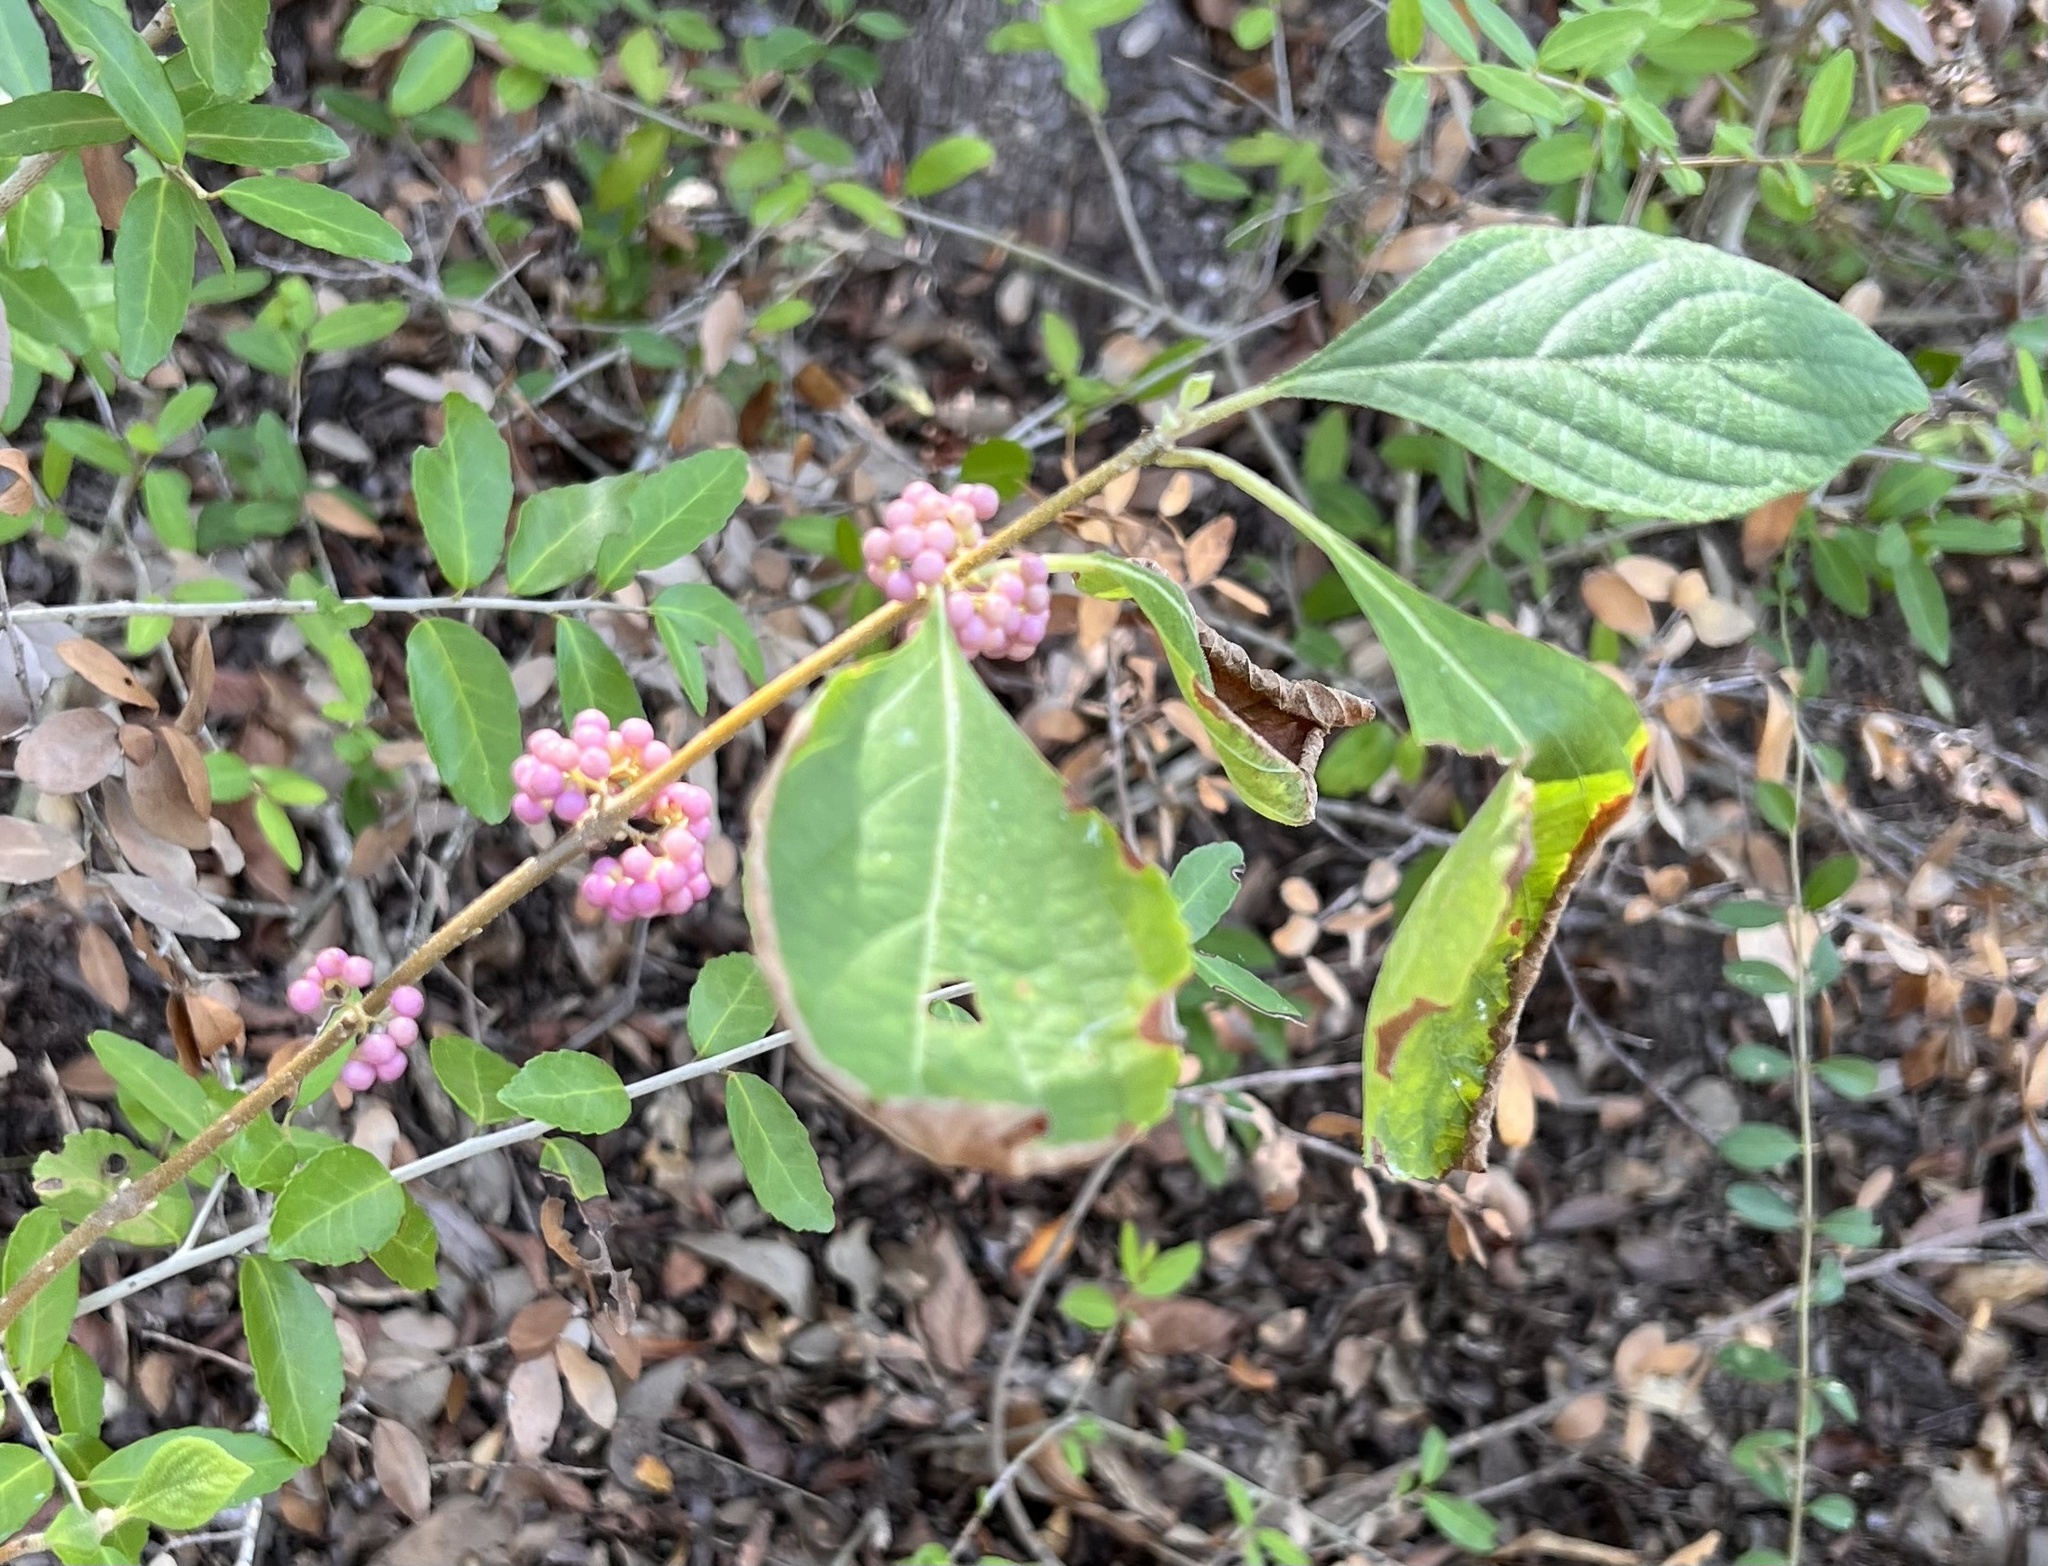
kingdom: Plantae
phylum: Tracheophyta
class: Magnoliopsida
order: Lamiales
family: Lamiaceae
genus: Callicarpa
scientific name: Callicarpa americana
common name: American beautyberry
